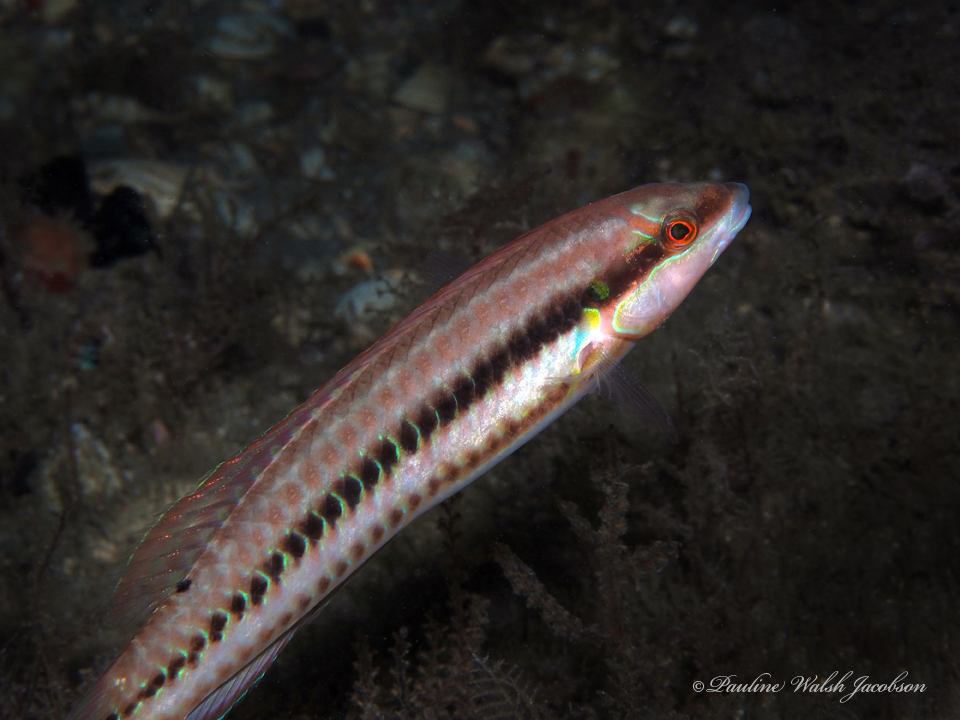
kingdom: Animalia
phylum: Chordata
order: Perciformes
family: Labridae
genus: Halichoeres
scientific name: Halichoeres bivittatus
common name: Slippery dick
